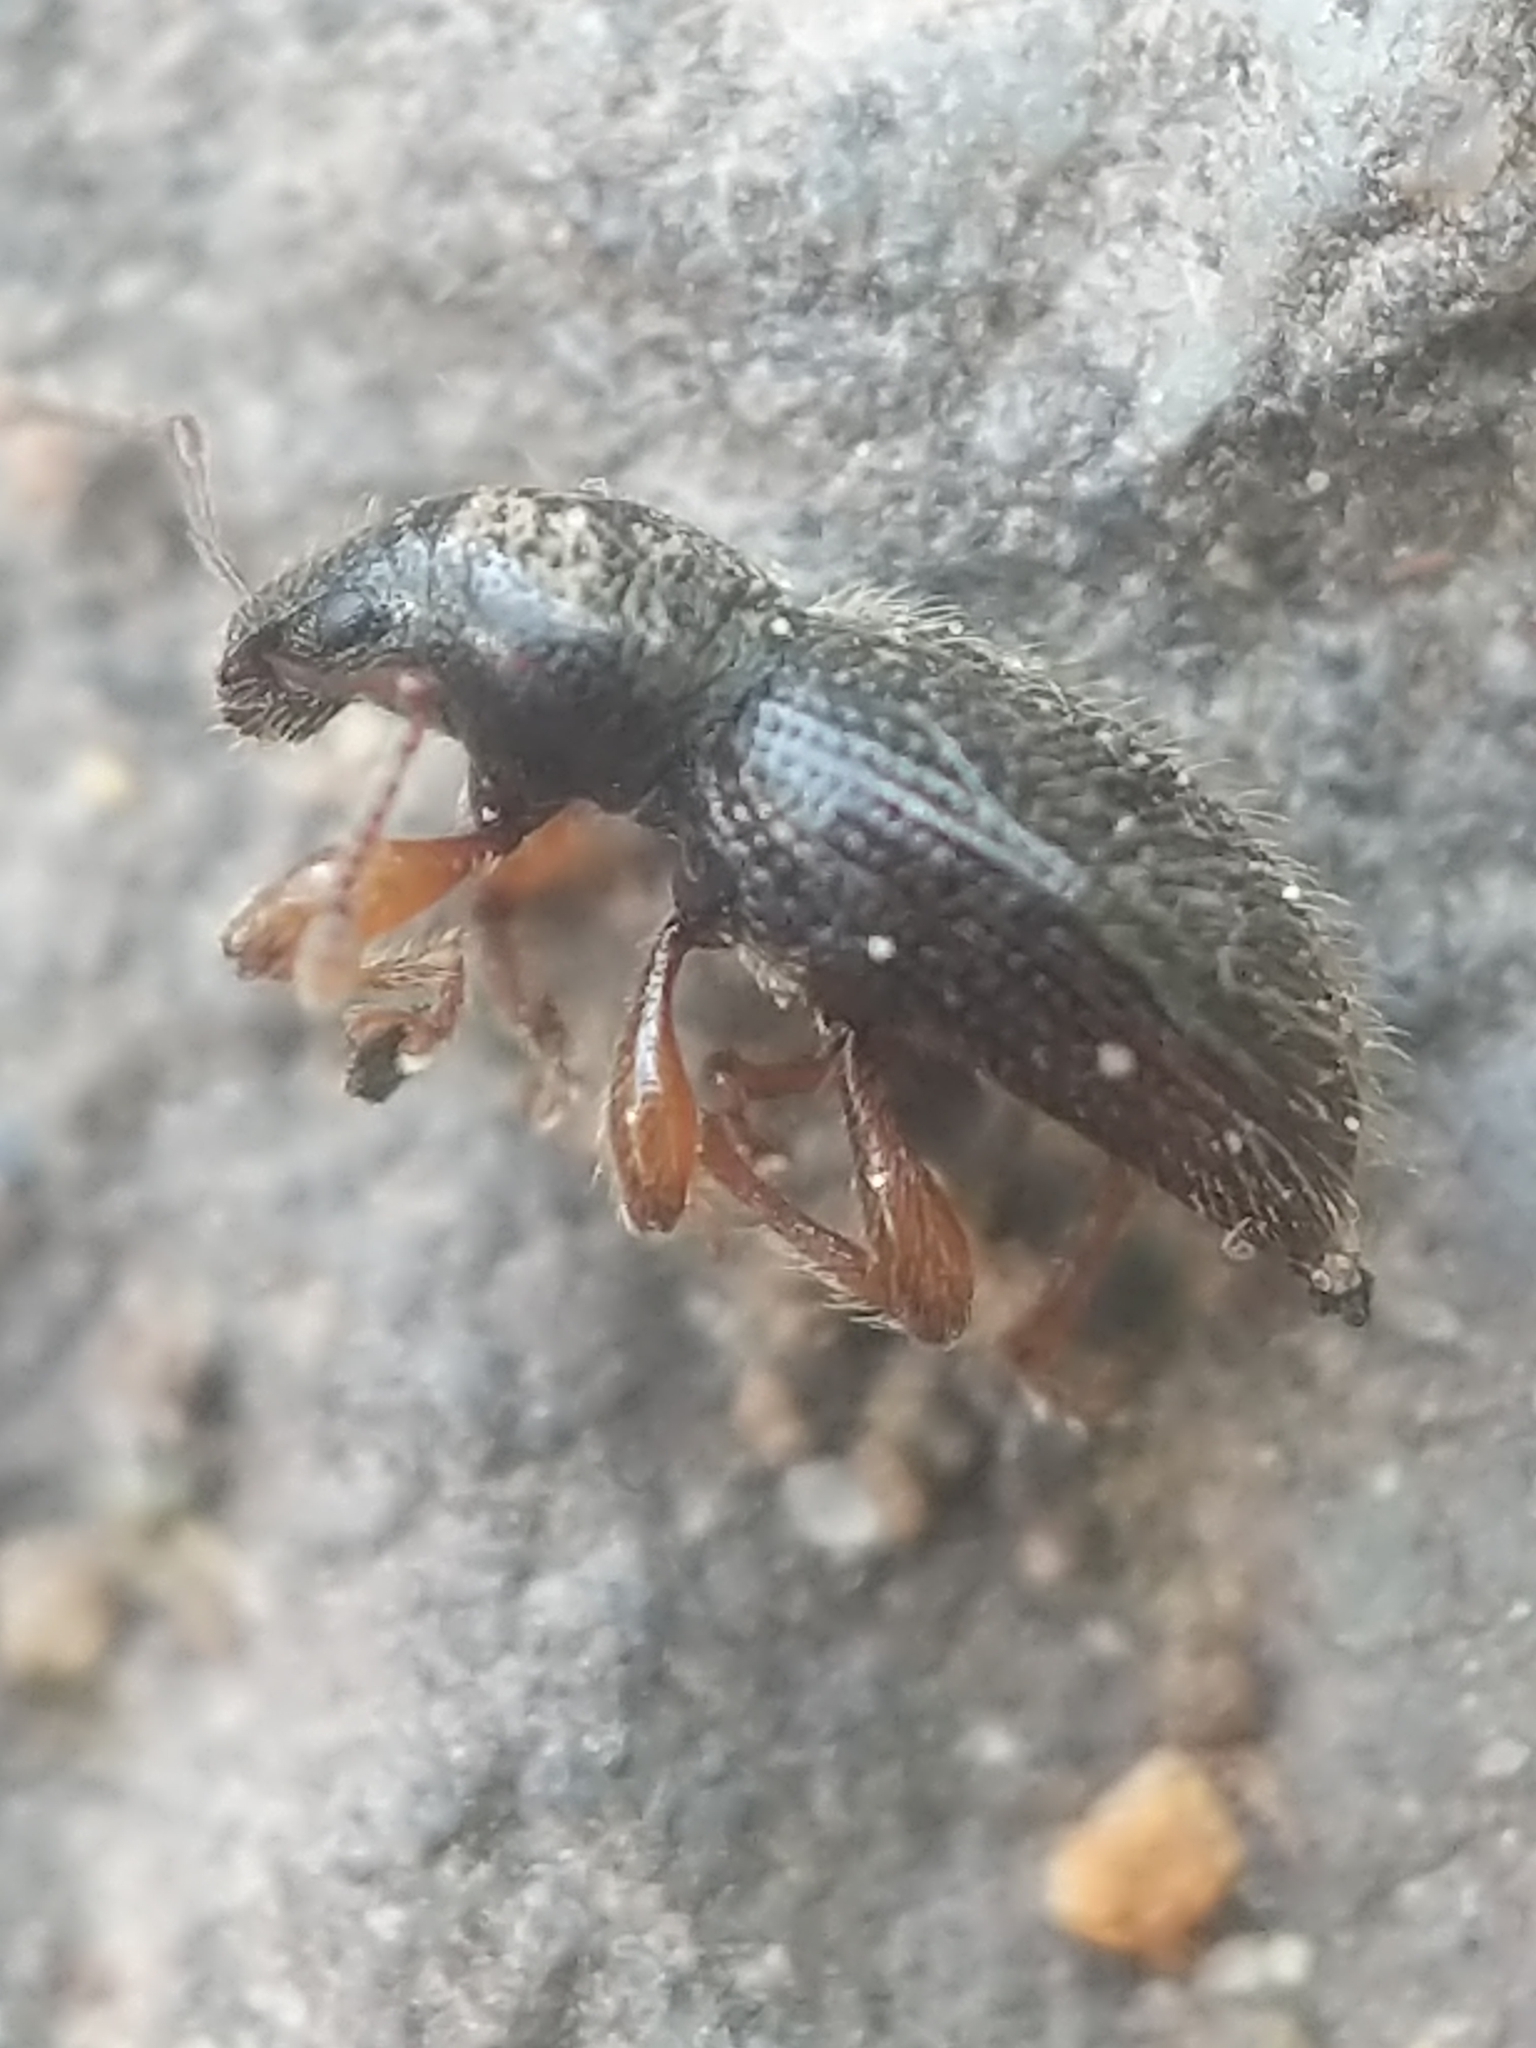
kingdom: Animalia
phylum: Arthropoda
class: Insecta
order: Coleoptera
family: Curculionidae
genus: Exomias
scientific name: Exomias pellucidus
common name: Hairy spider weevil
